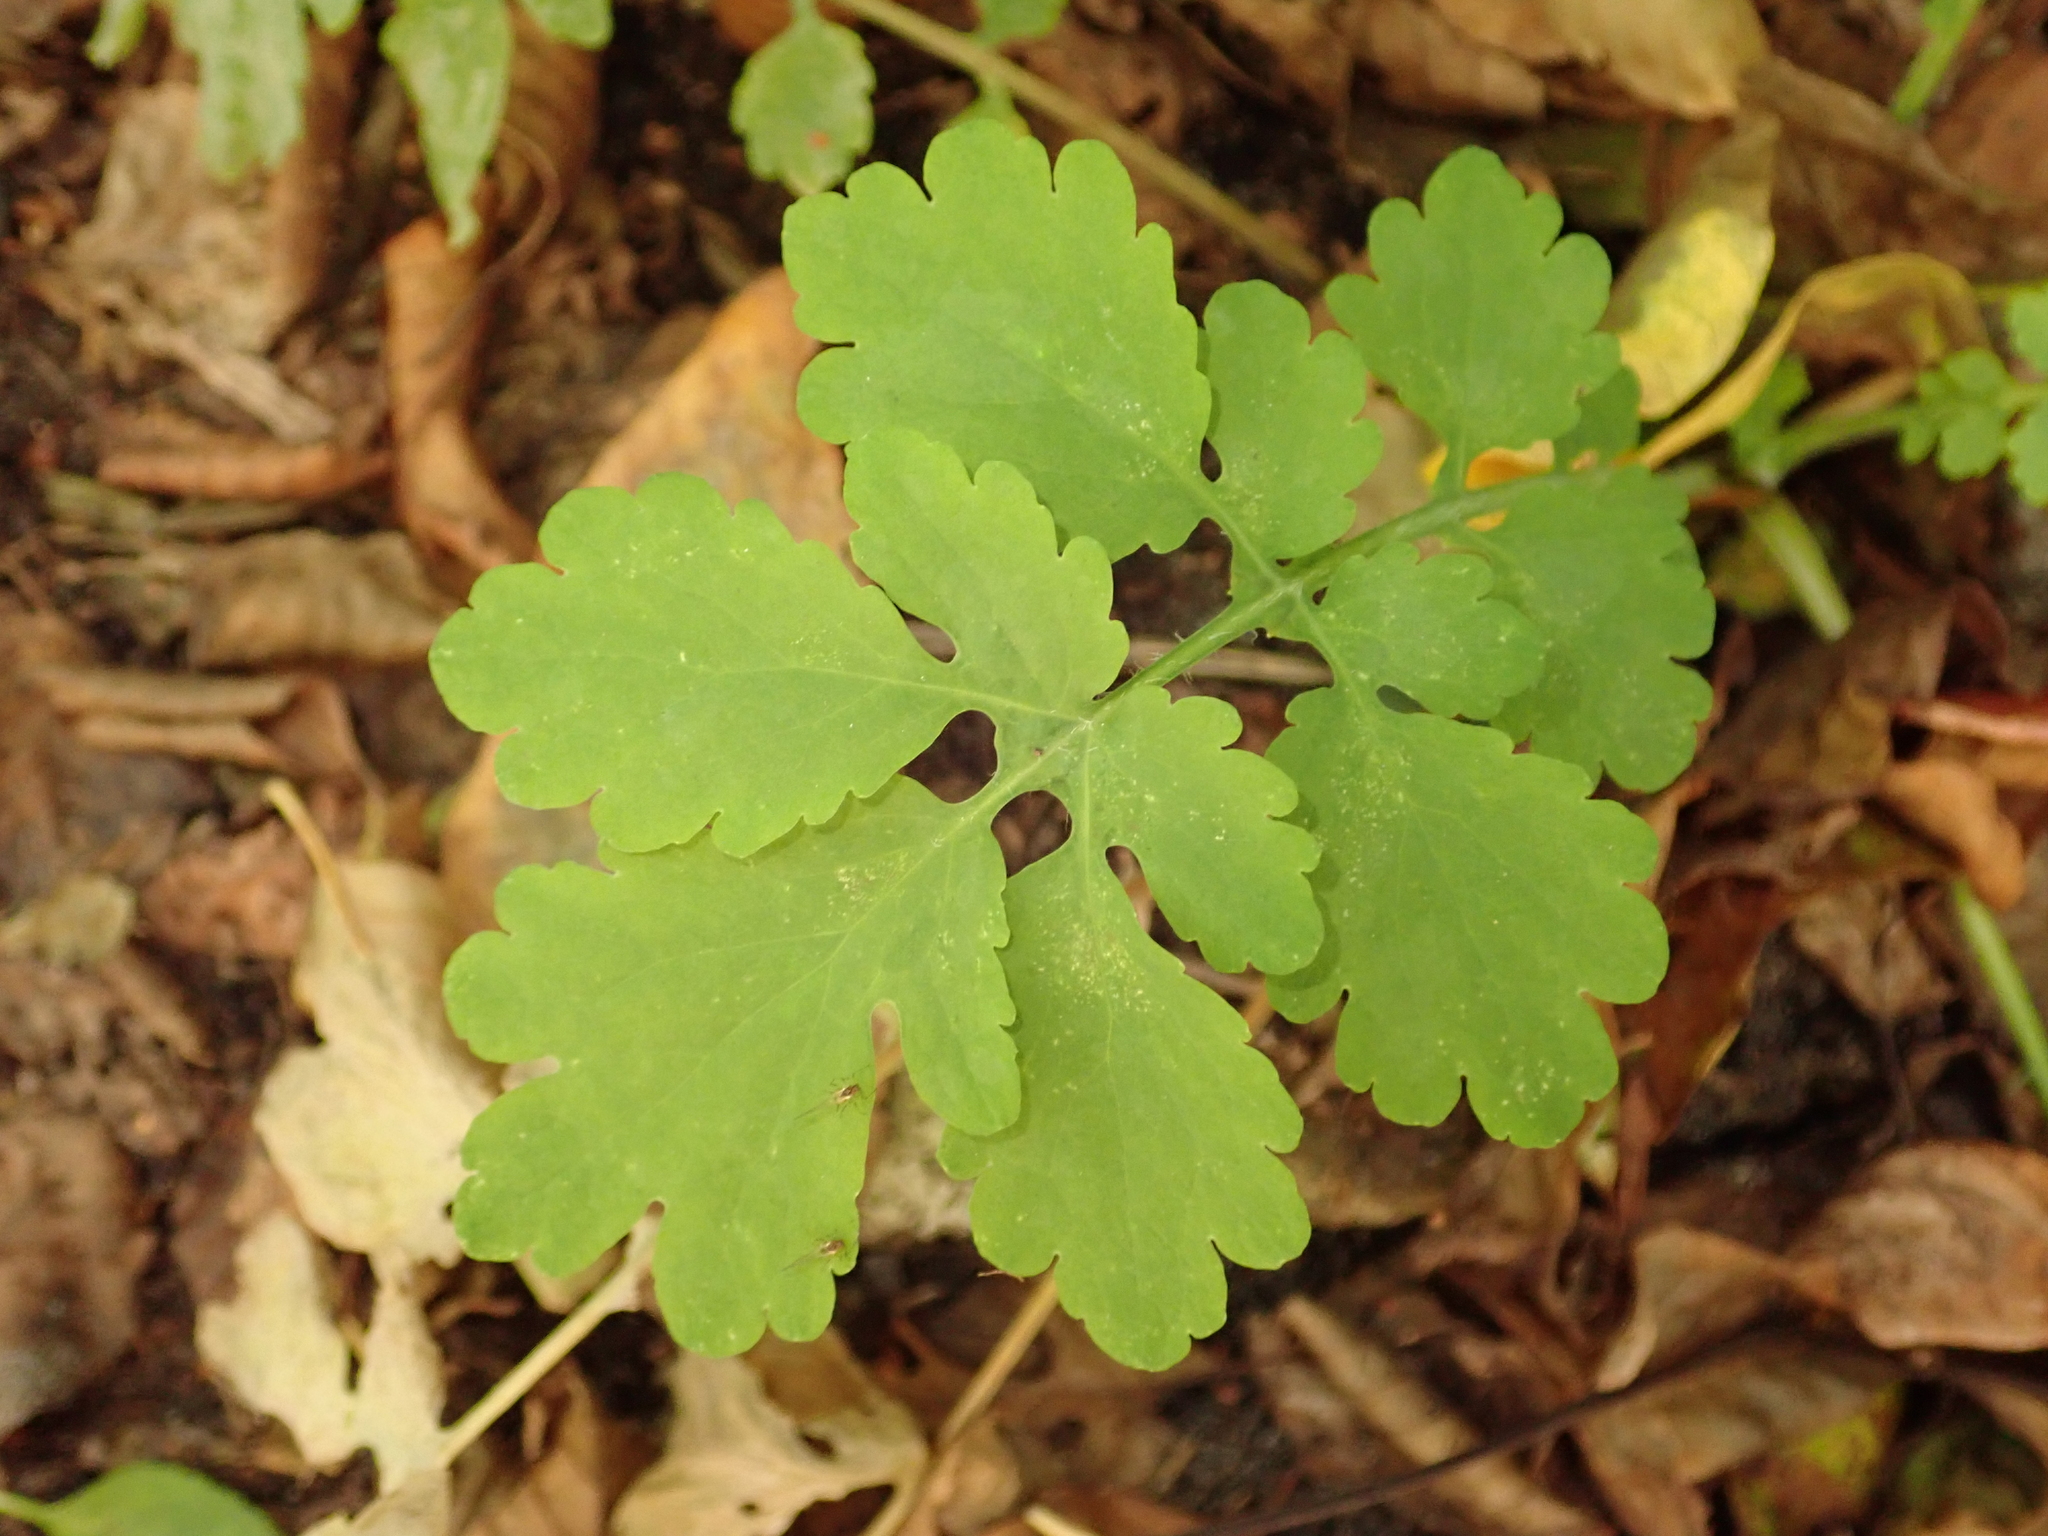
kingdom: Plantae
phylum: Tracheophyta
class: Magnoliopsida
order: Ranunculales
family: Papaveraceae
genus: Chelidonium
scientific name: Chelidonium majus
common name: Greater celandine
